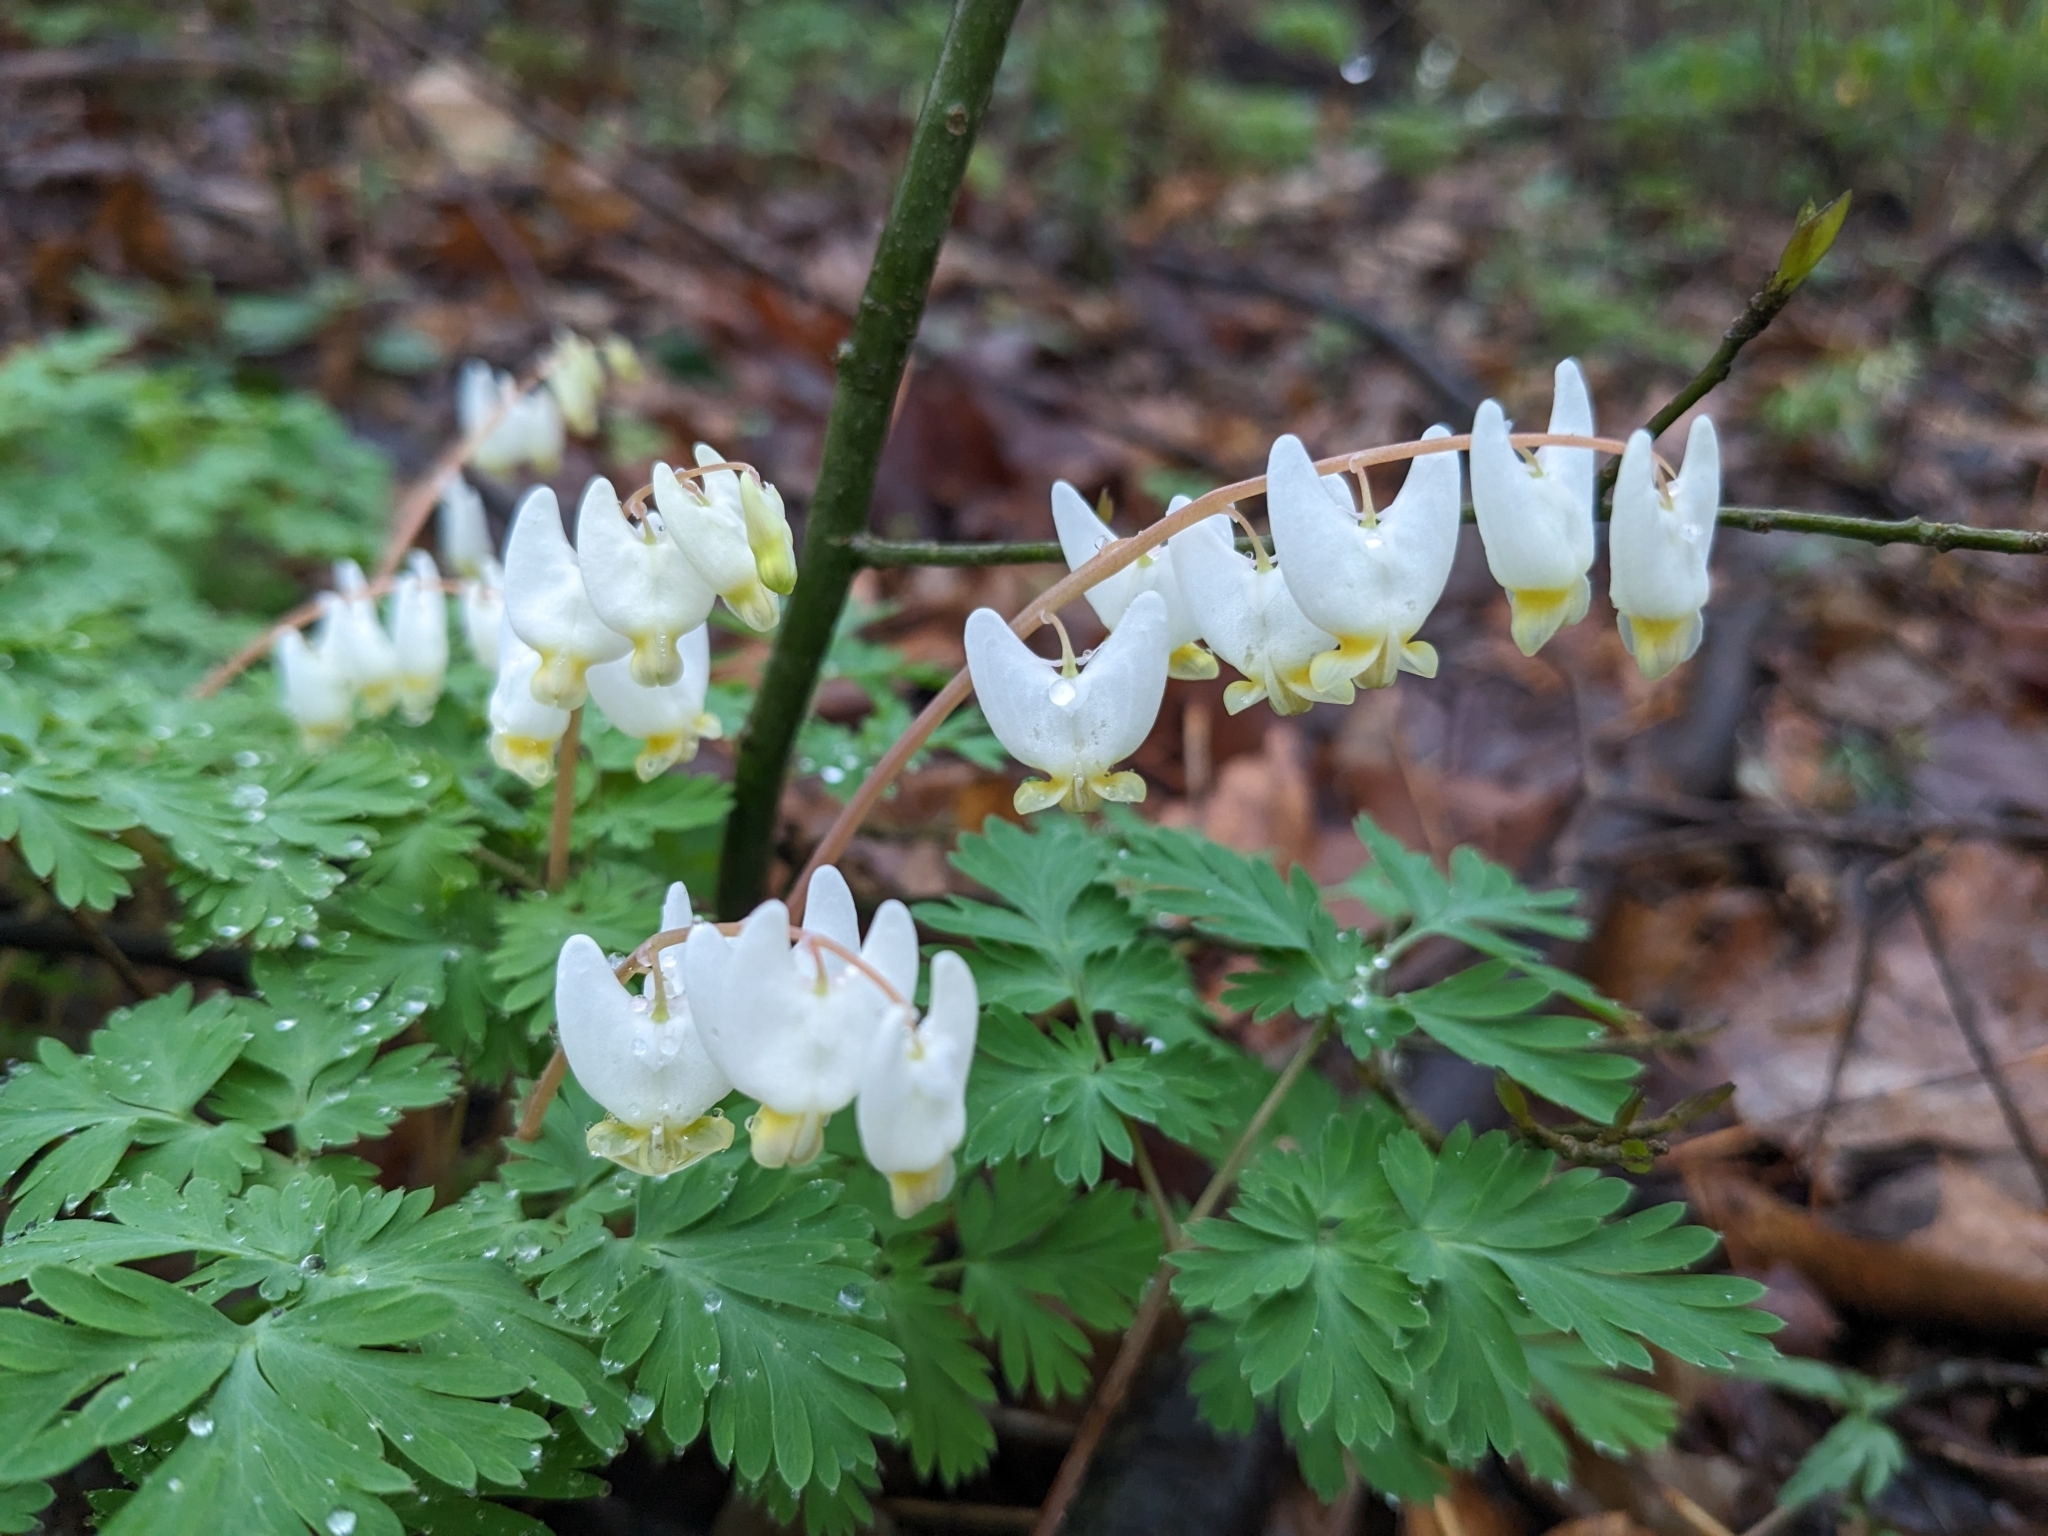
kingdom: Plantae
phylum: Tracheophyta
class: Magnoliopsida
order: Ranunculales
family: Papaveraceae
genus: Dicentra
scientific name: Dicentra cucullaria
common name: Dutchman's breeches
